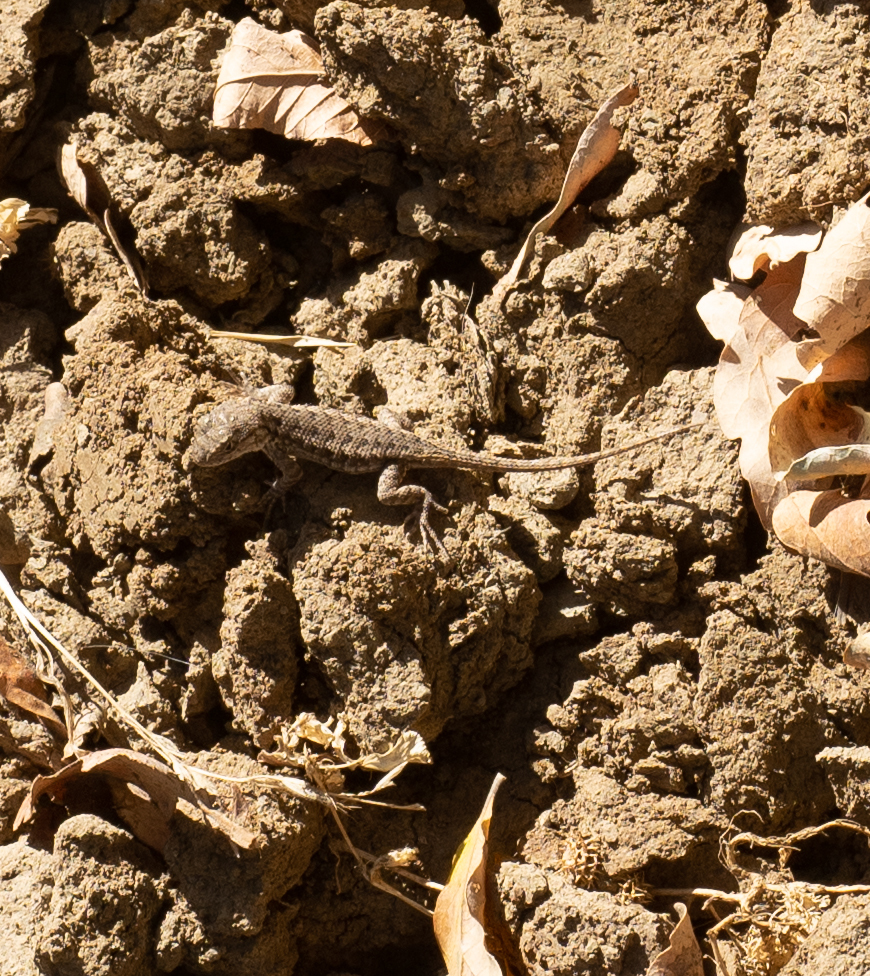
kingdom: Animalia
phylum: Chordata
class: Squamata
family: Phrynosomatidae
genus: Sceloporus
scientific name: Sceloporus occidentalis
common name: Western fence lizard
